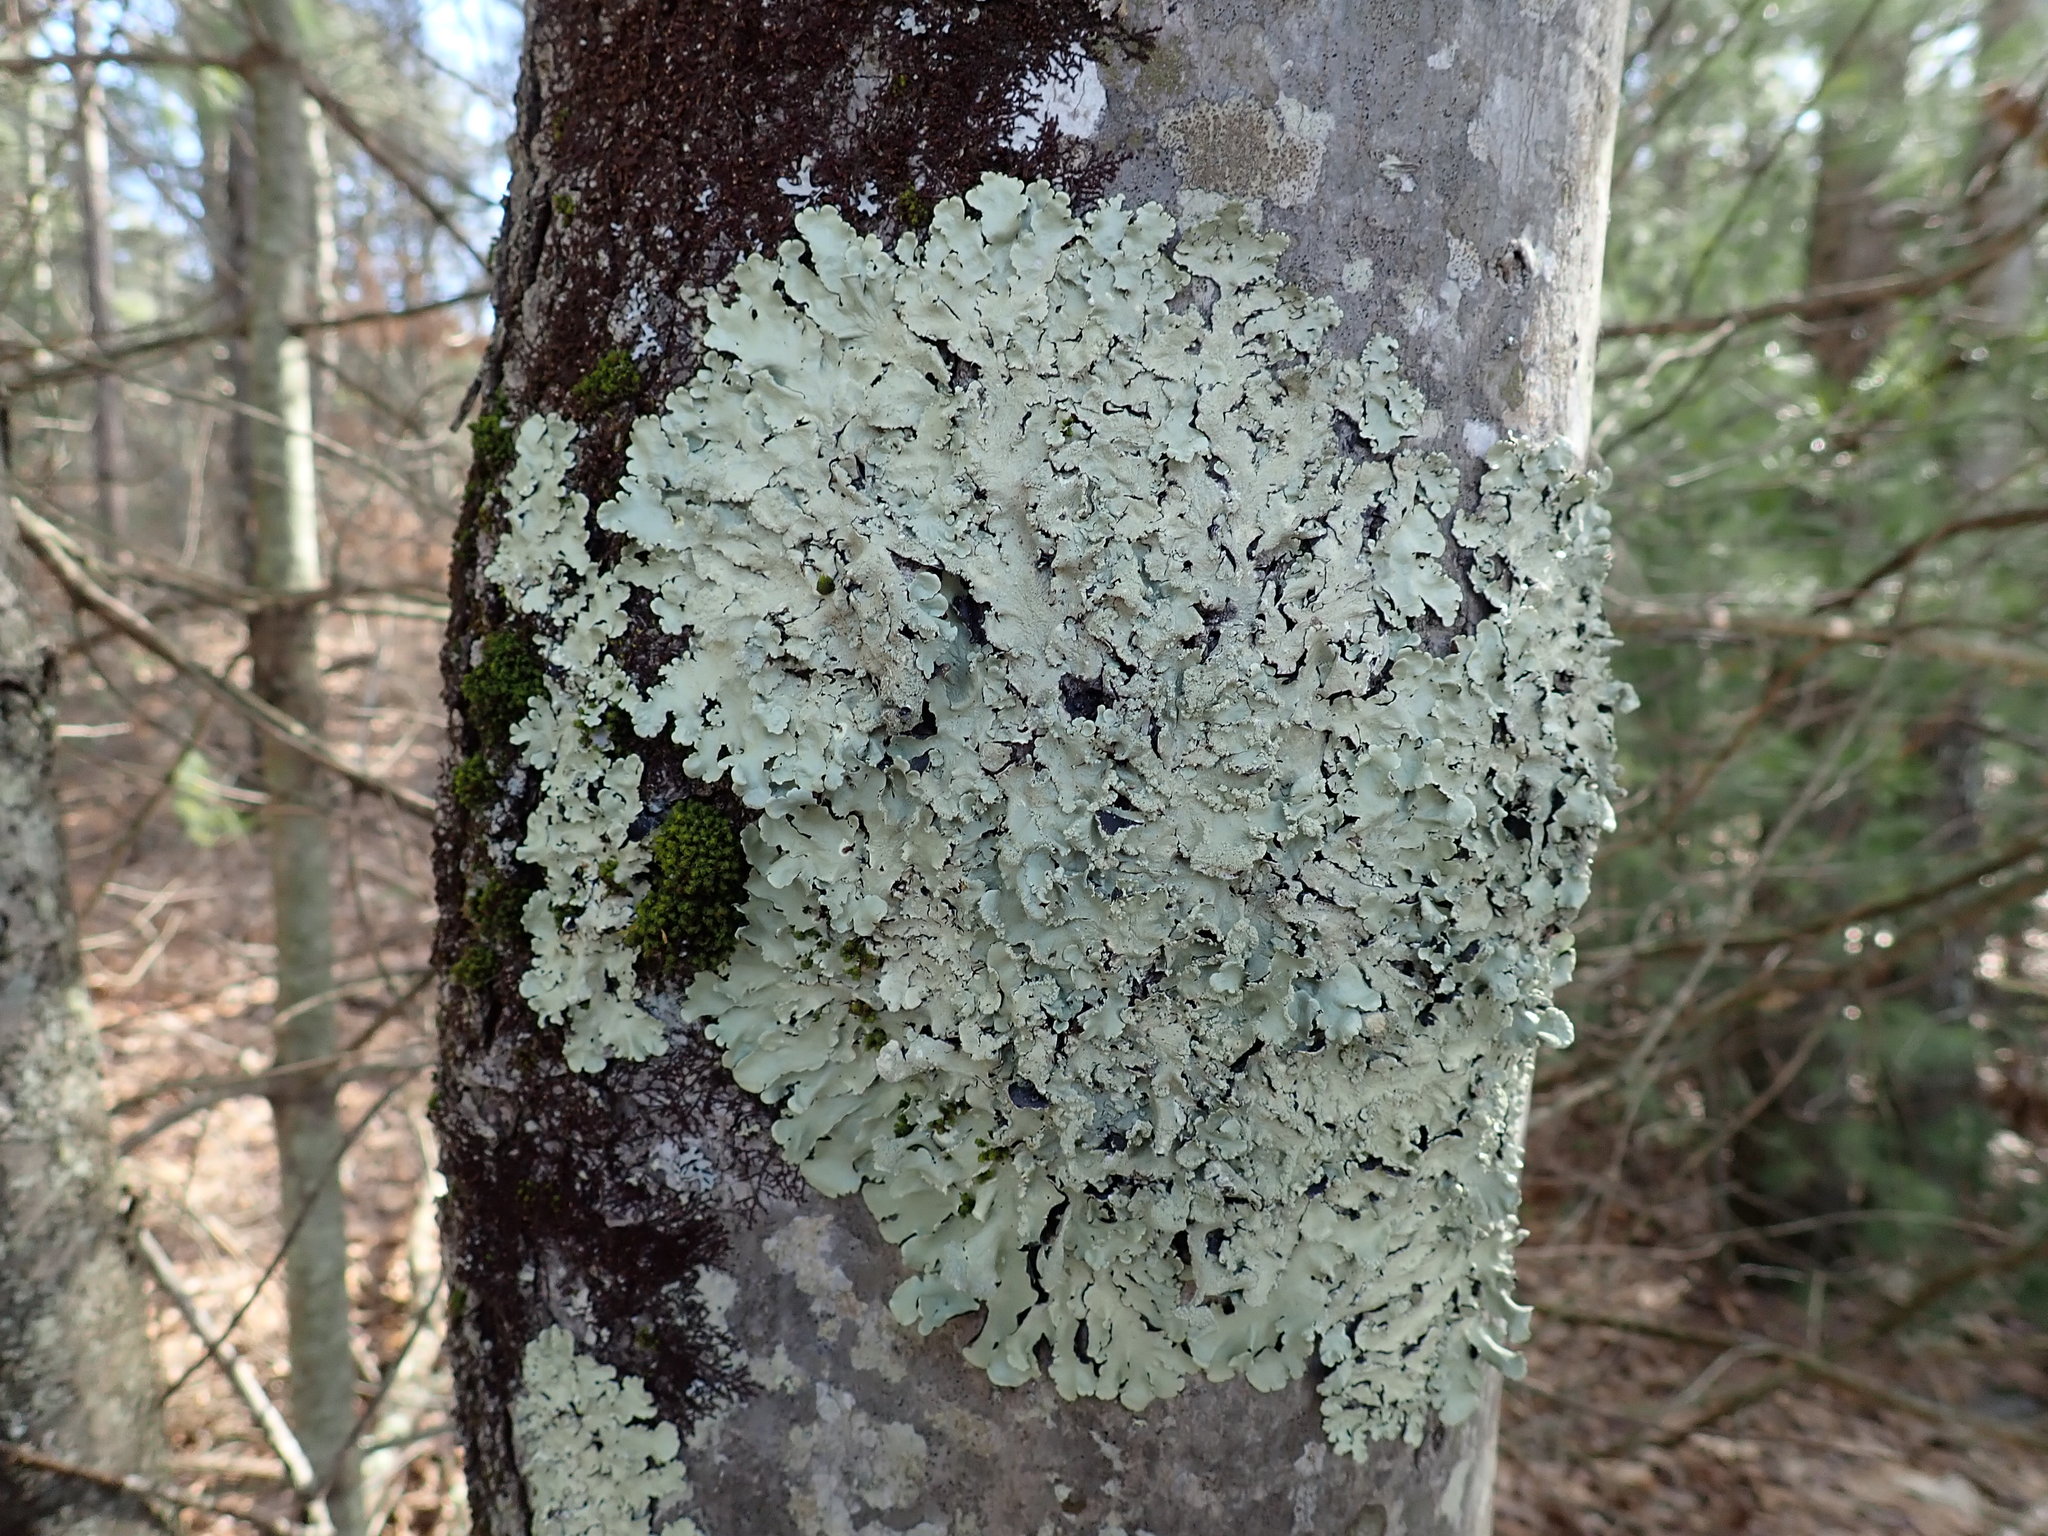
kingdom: Fungi
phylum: Ascomycota
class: Lecanoromycetes
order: Lecanorales
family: Parmeliaceae
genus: Flavoparmelia
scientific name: Flavoparmelia caperata
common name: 40-mile per hour lichen
